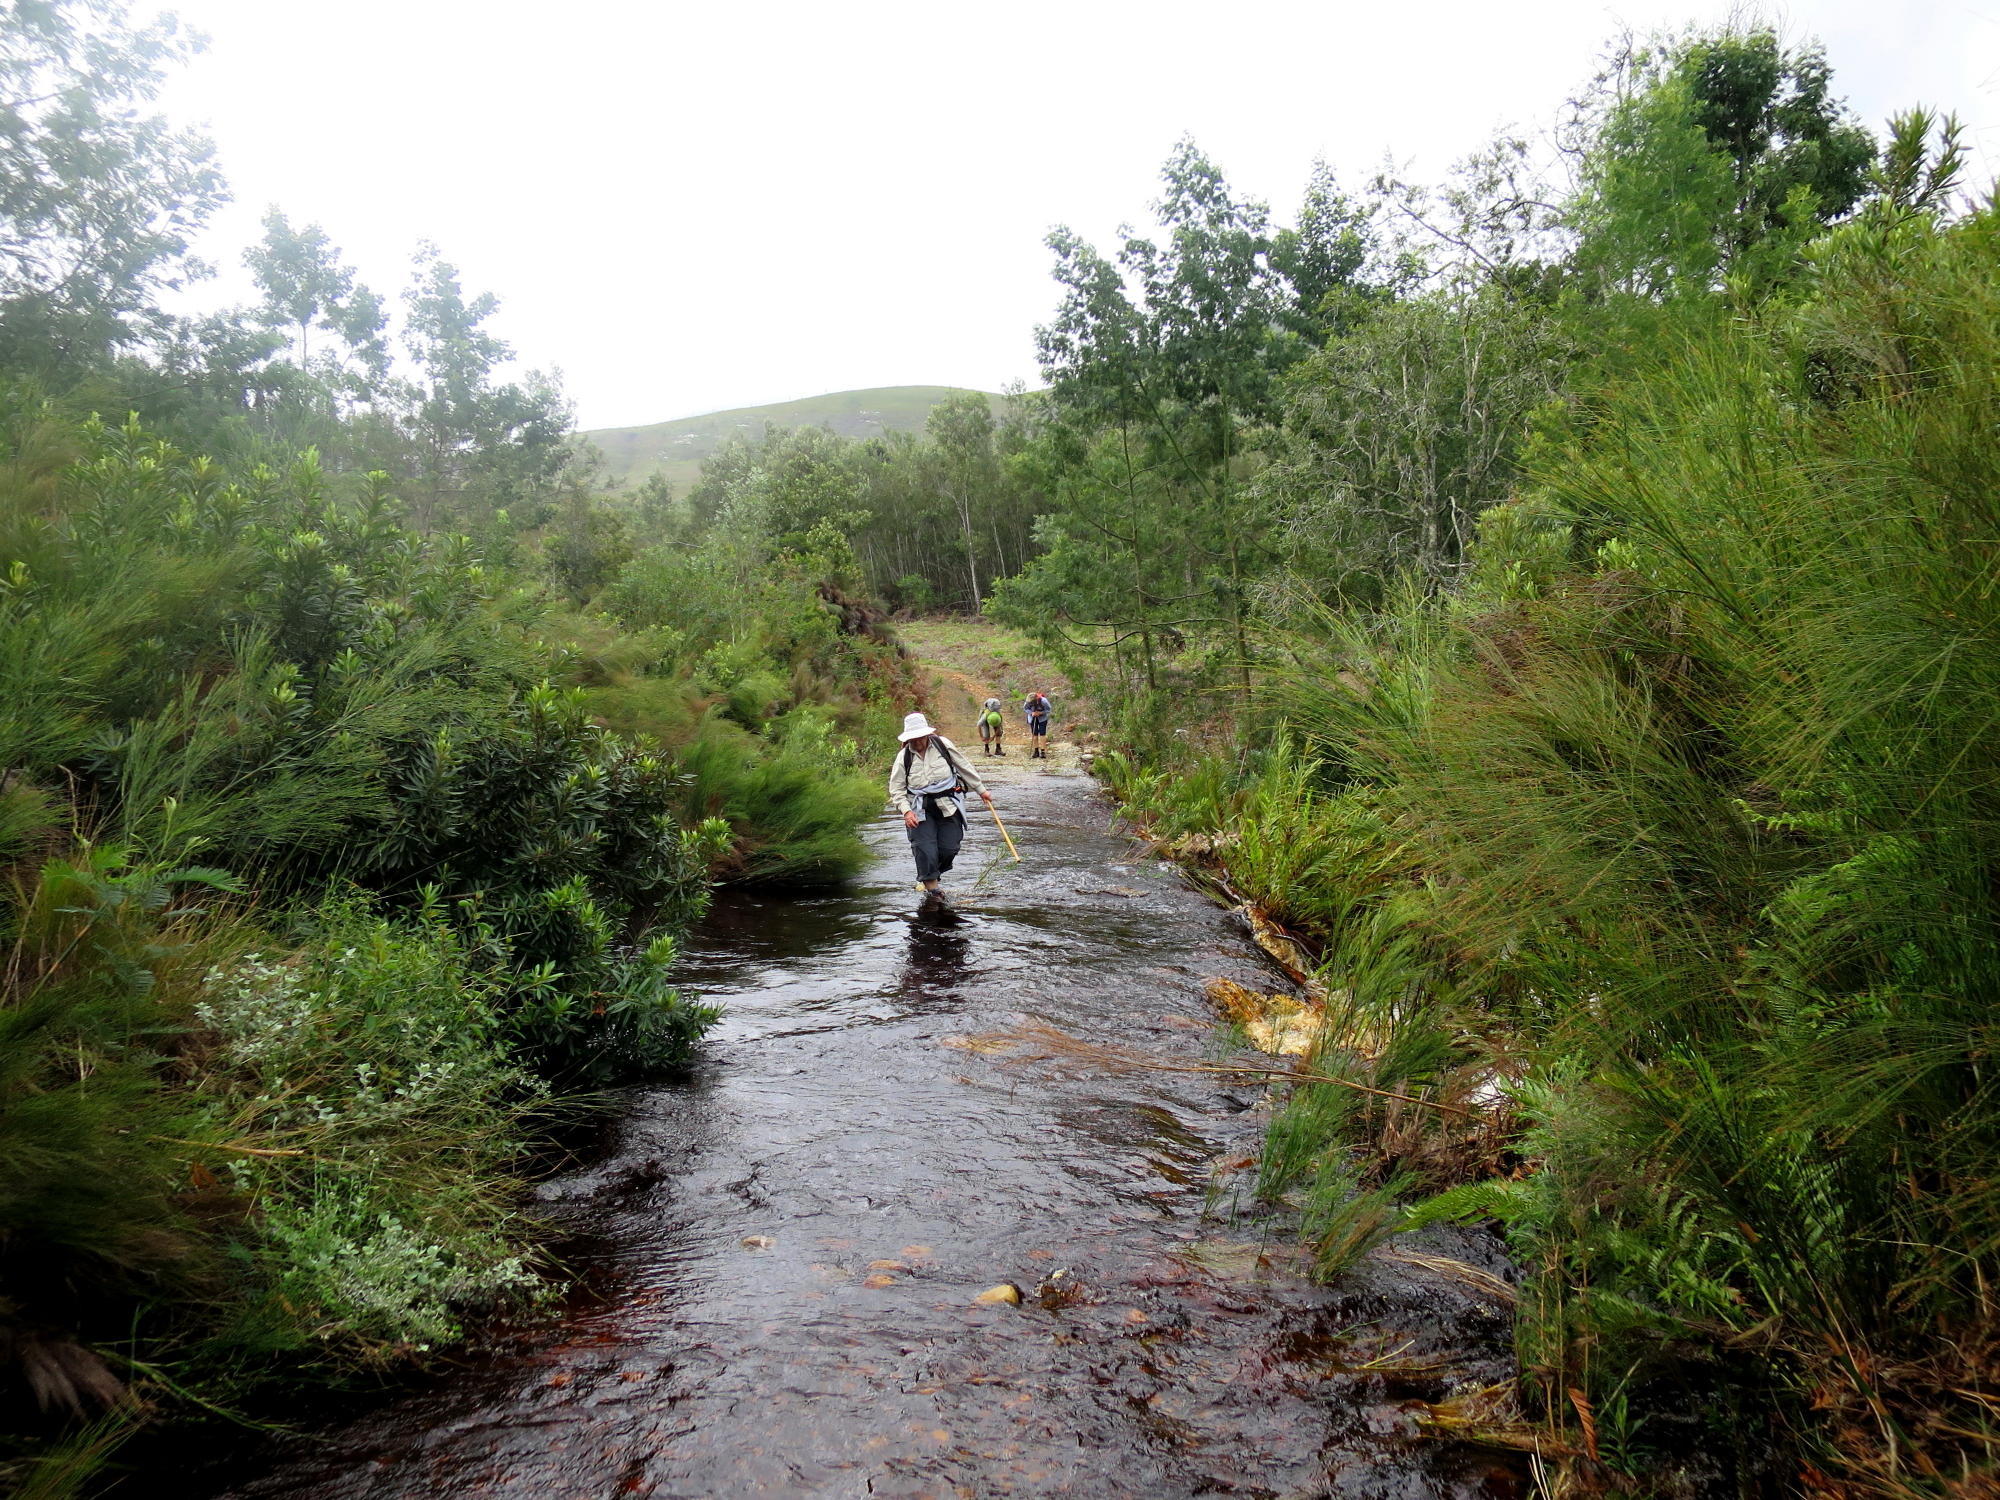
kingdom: Plantae
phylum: Tracheophyta
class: Magnoliopsida
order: Fabales
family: Fabaceae
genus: Acacia
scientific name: Acacia mearnsii
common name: Black wattle
